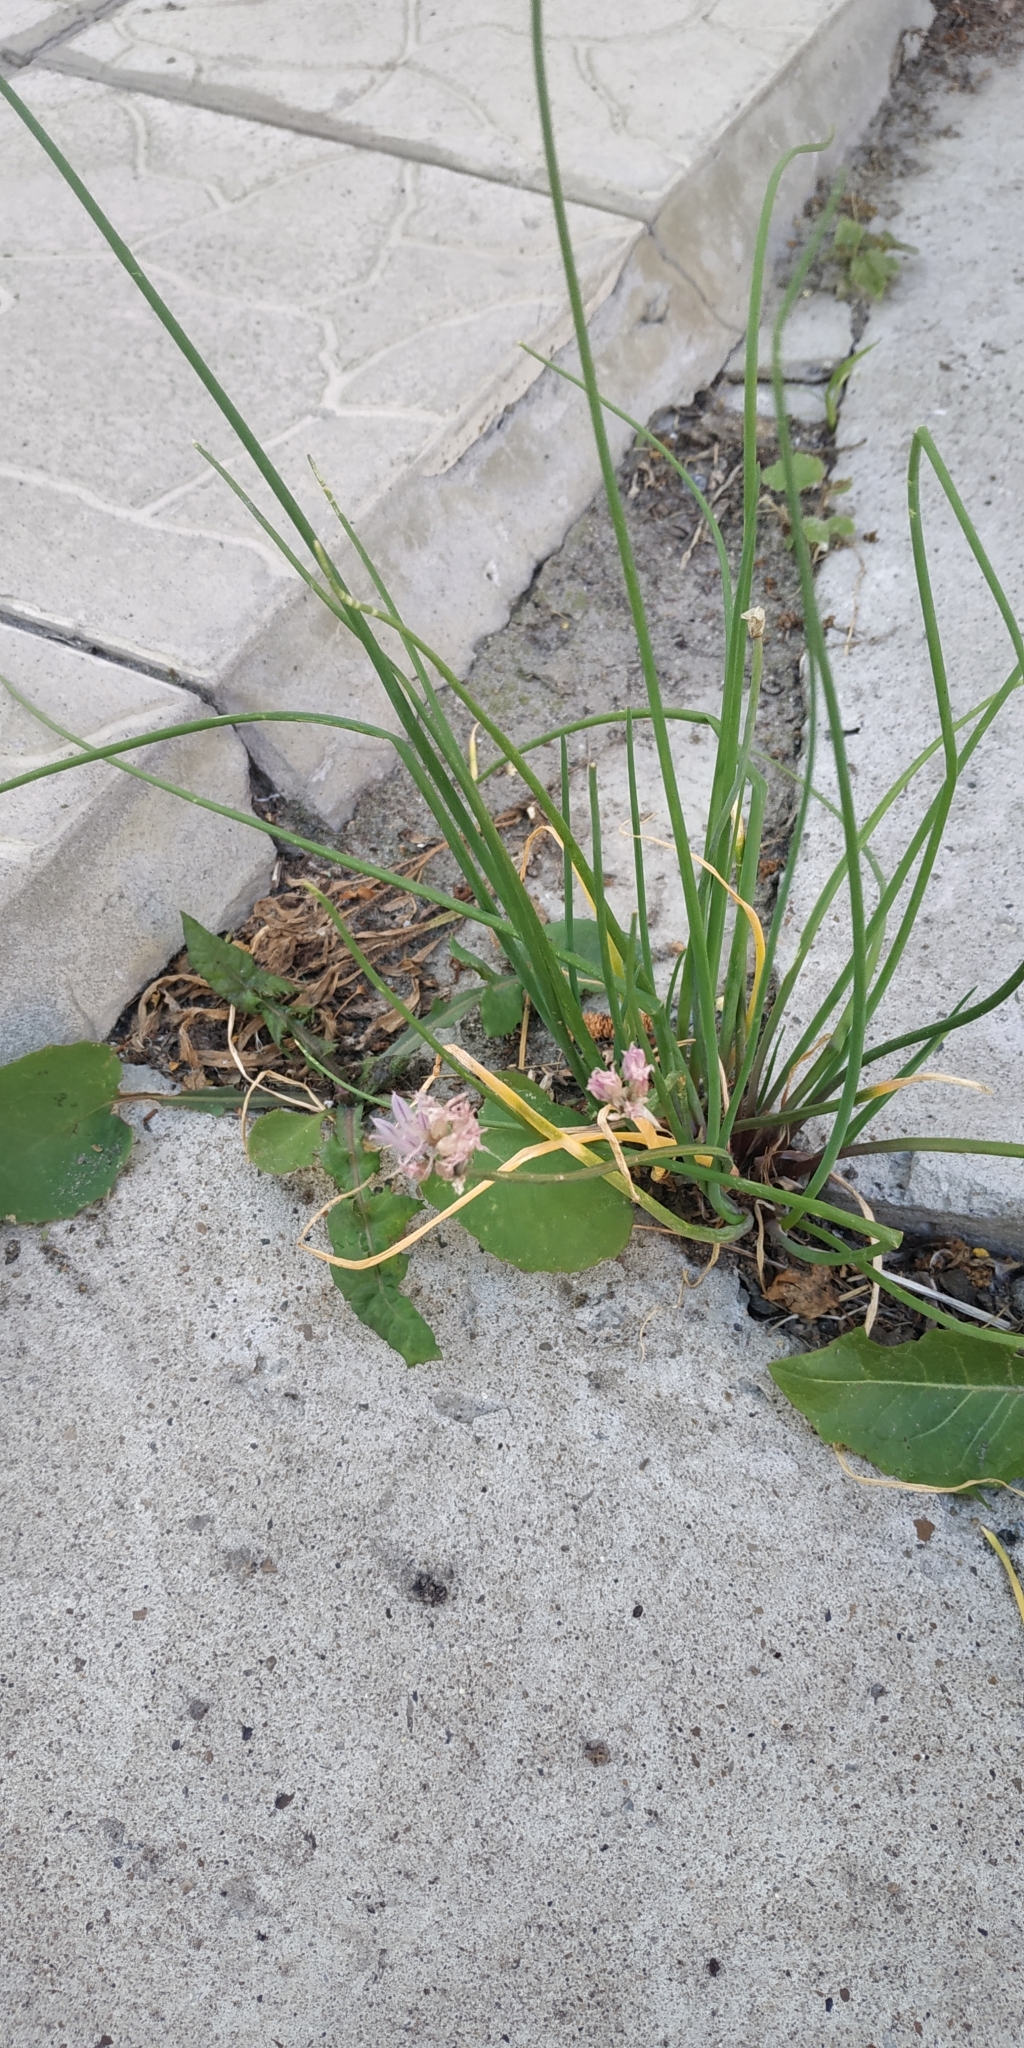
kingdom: Plantae
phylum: Tracheophyta
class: Liliopsida
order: Asparagales
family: Amaryllidaceae
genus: Allium
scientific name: Allium schoenoprasum
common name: Chives
